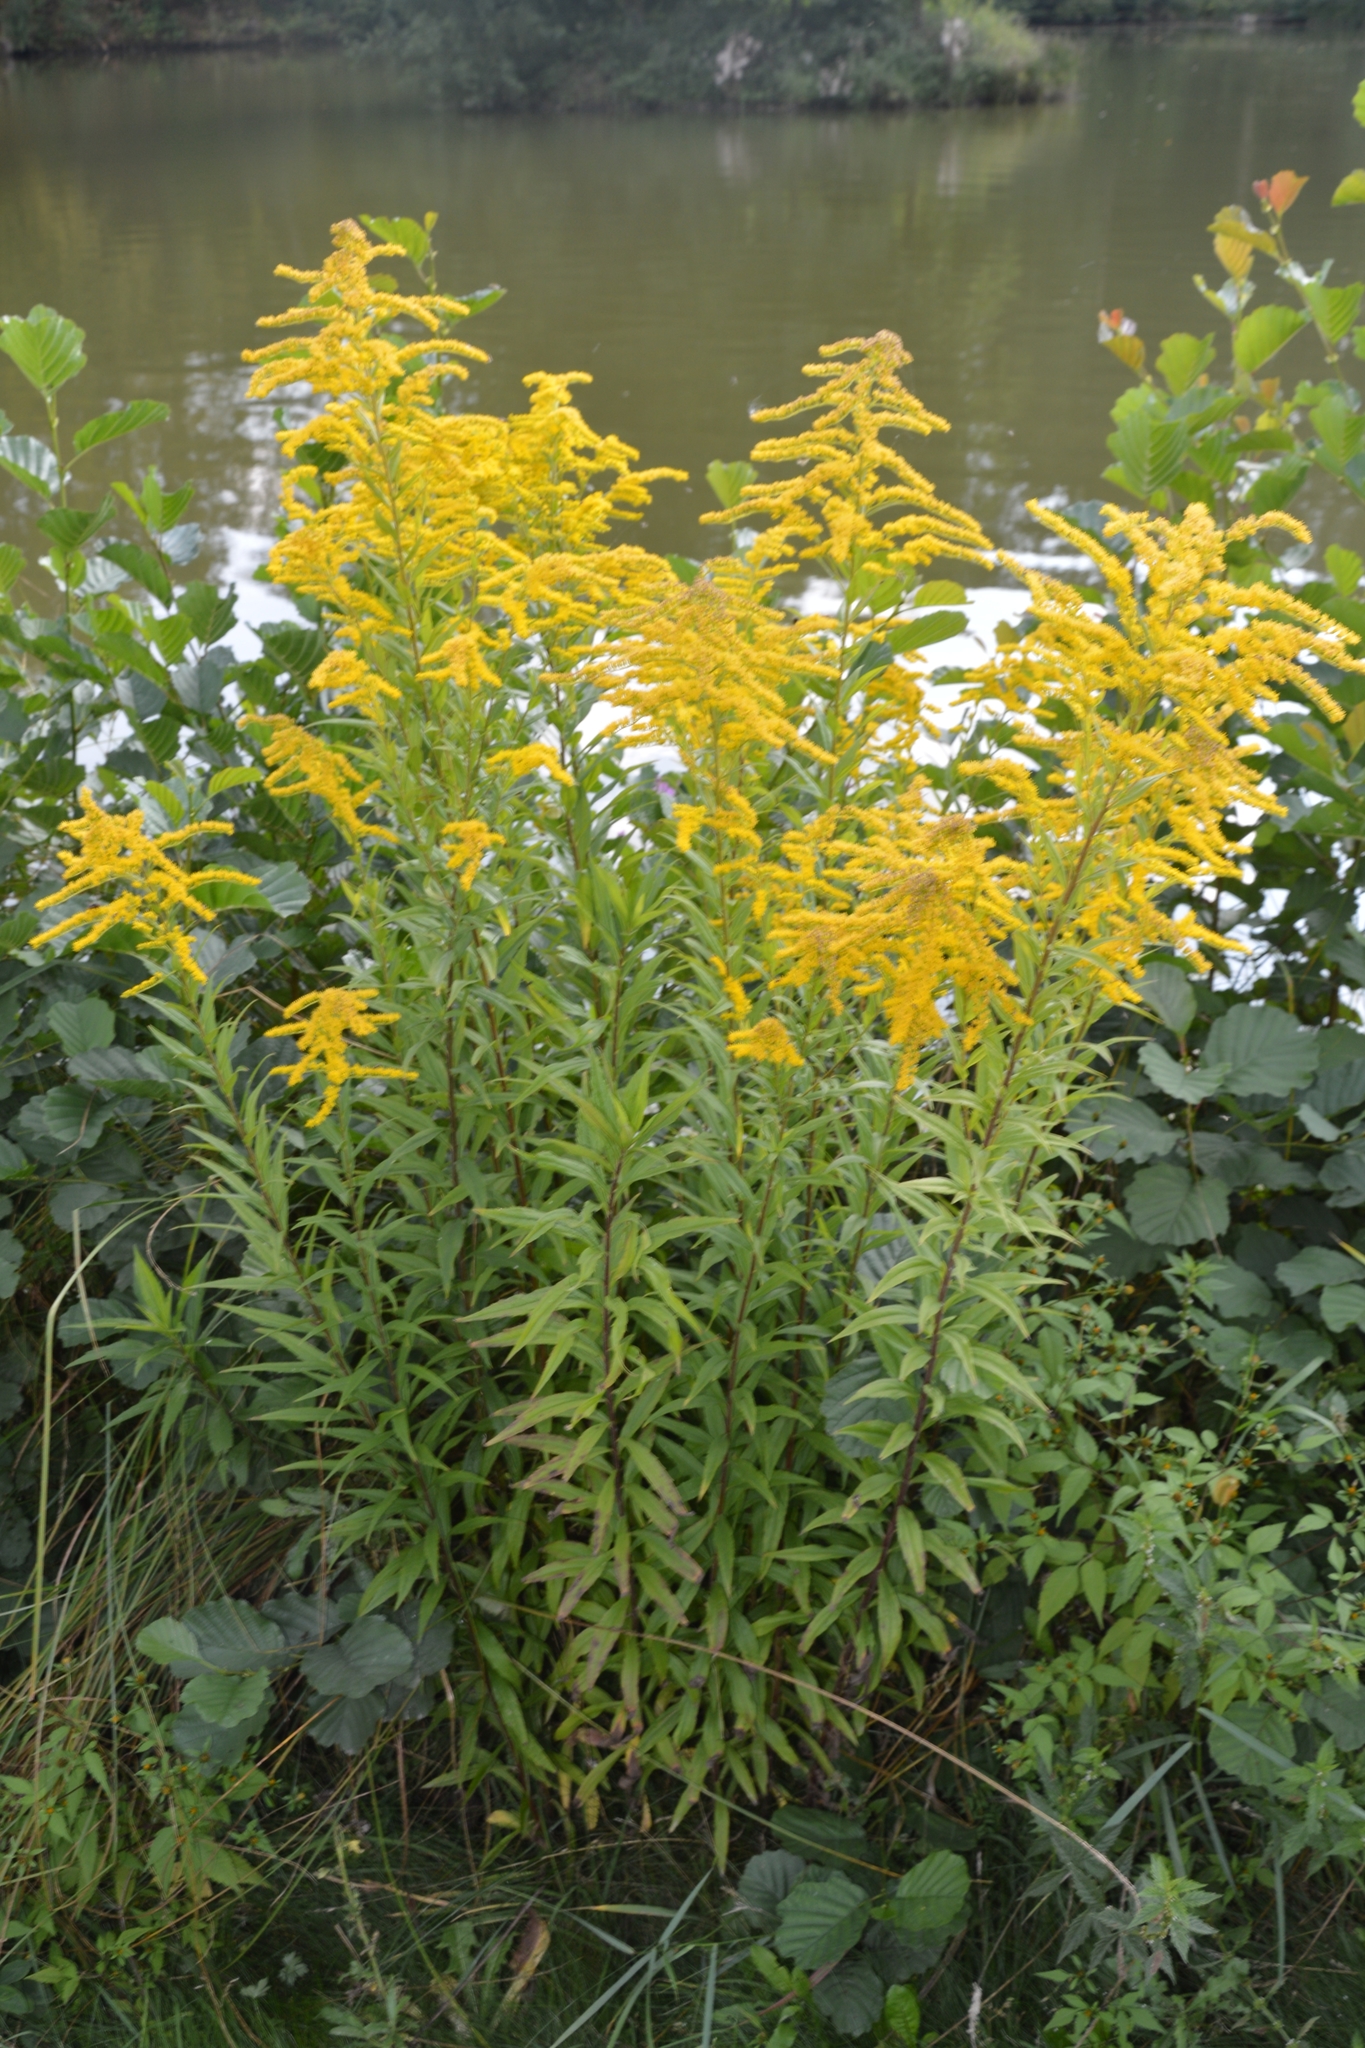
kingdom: Plantae
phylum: Tracheophyta
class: Magnoliopsida
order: Asterales
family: Asteraceae
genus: Solidago
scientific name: Solidago canadensis
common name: Canada goldenrod
